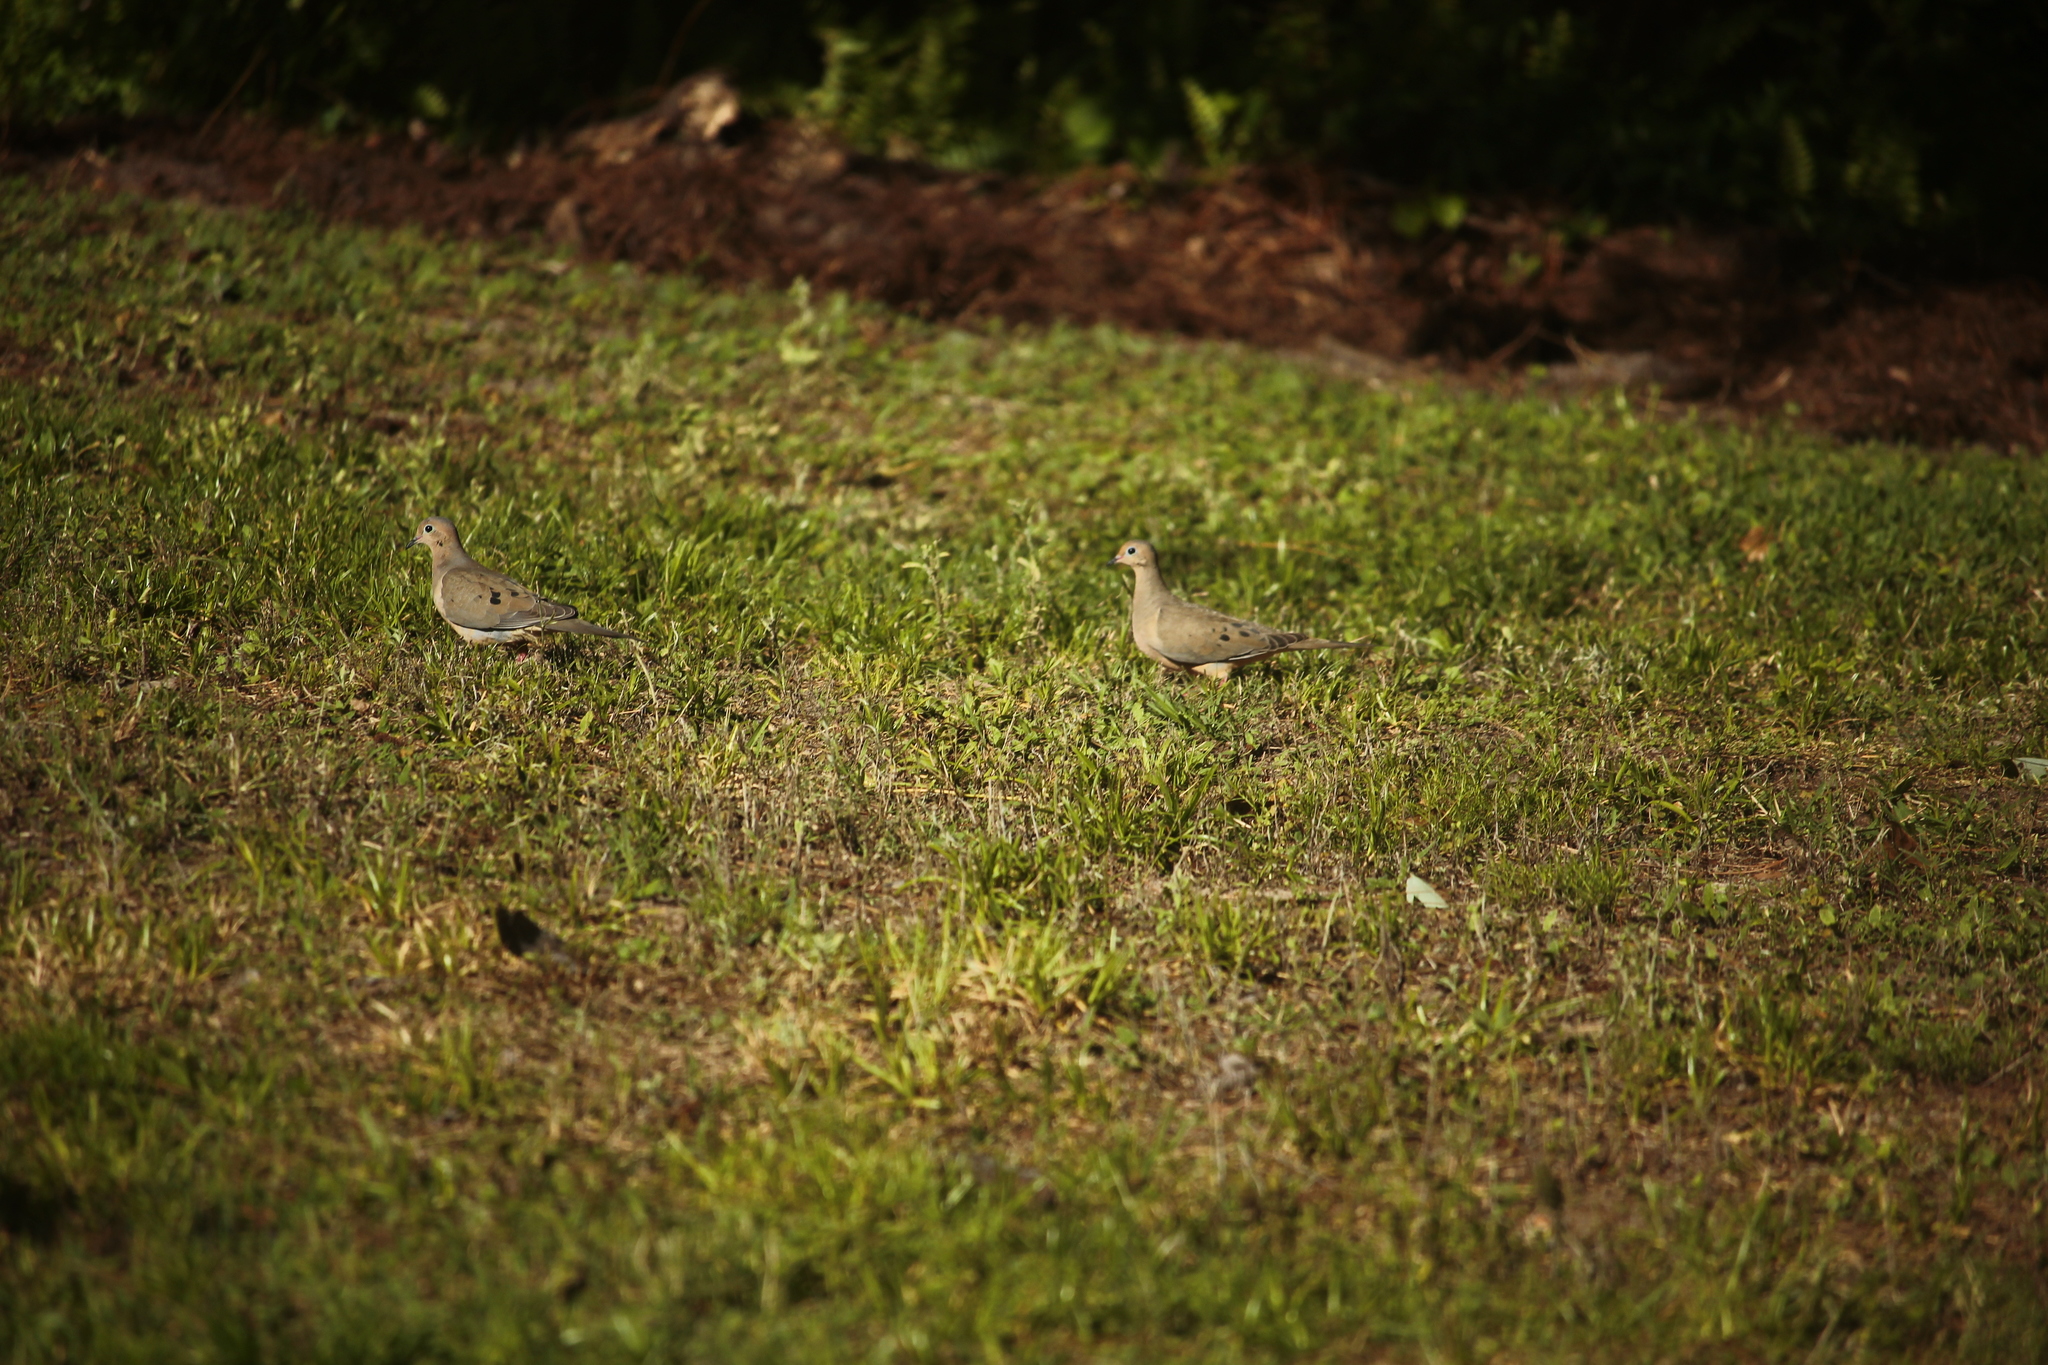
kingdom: Animalia
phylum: Chordata
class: Aves
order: Columbiformes
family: Columbidae
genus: Zenaida
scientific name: Zenaida macroura
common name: Mourning dove
